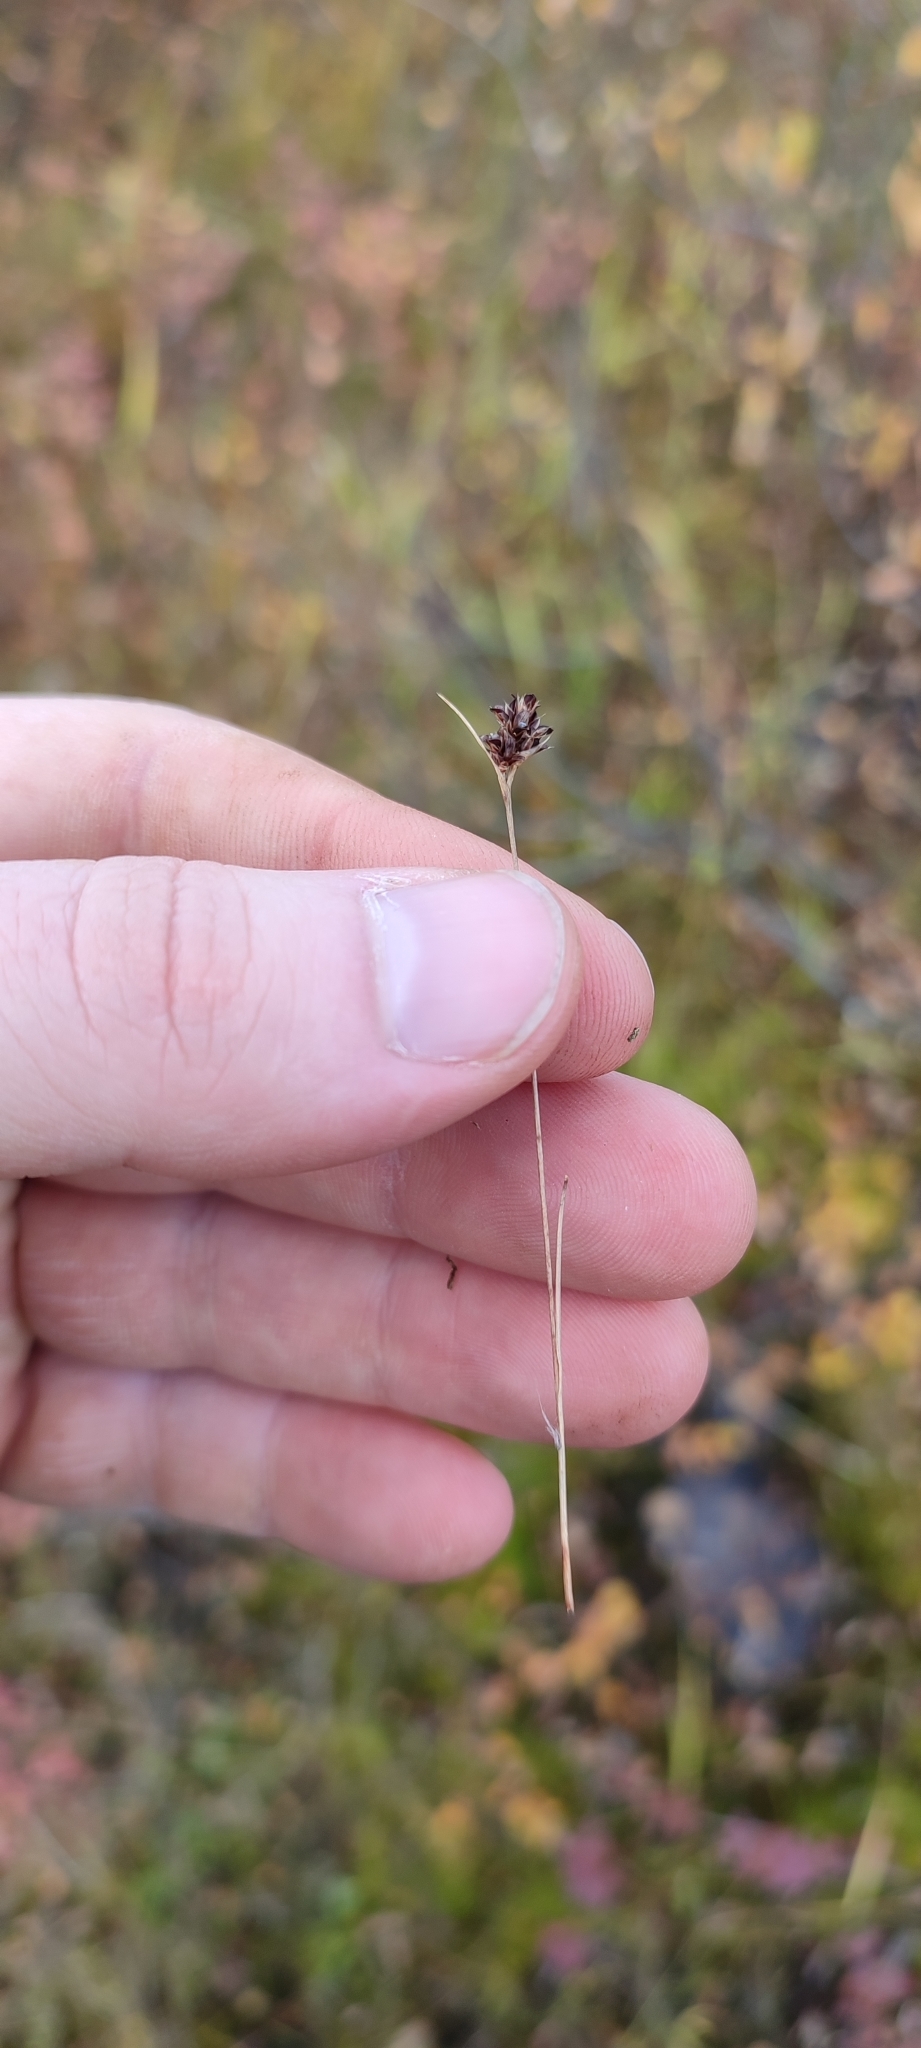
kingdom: Plantae
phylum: Tracheophyta
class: Liliopsida
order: Poales
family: Juncaceae
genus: Luzula
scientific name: Luzula multiflora
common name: Heath wood-rush
